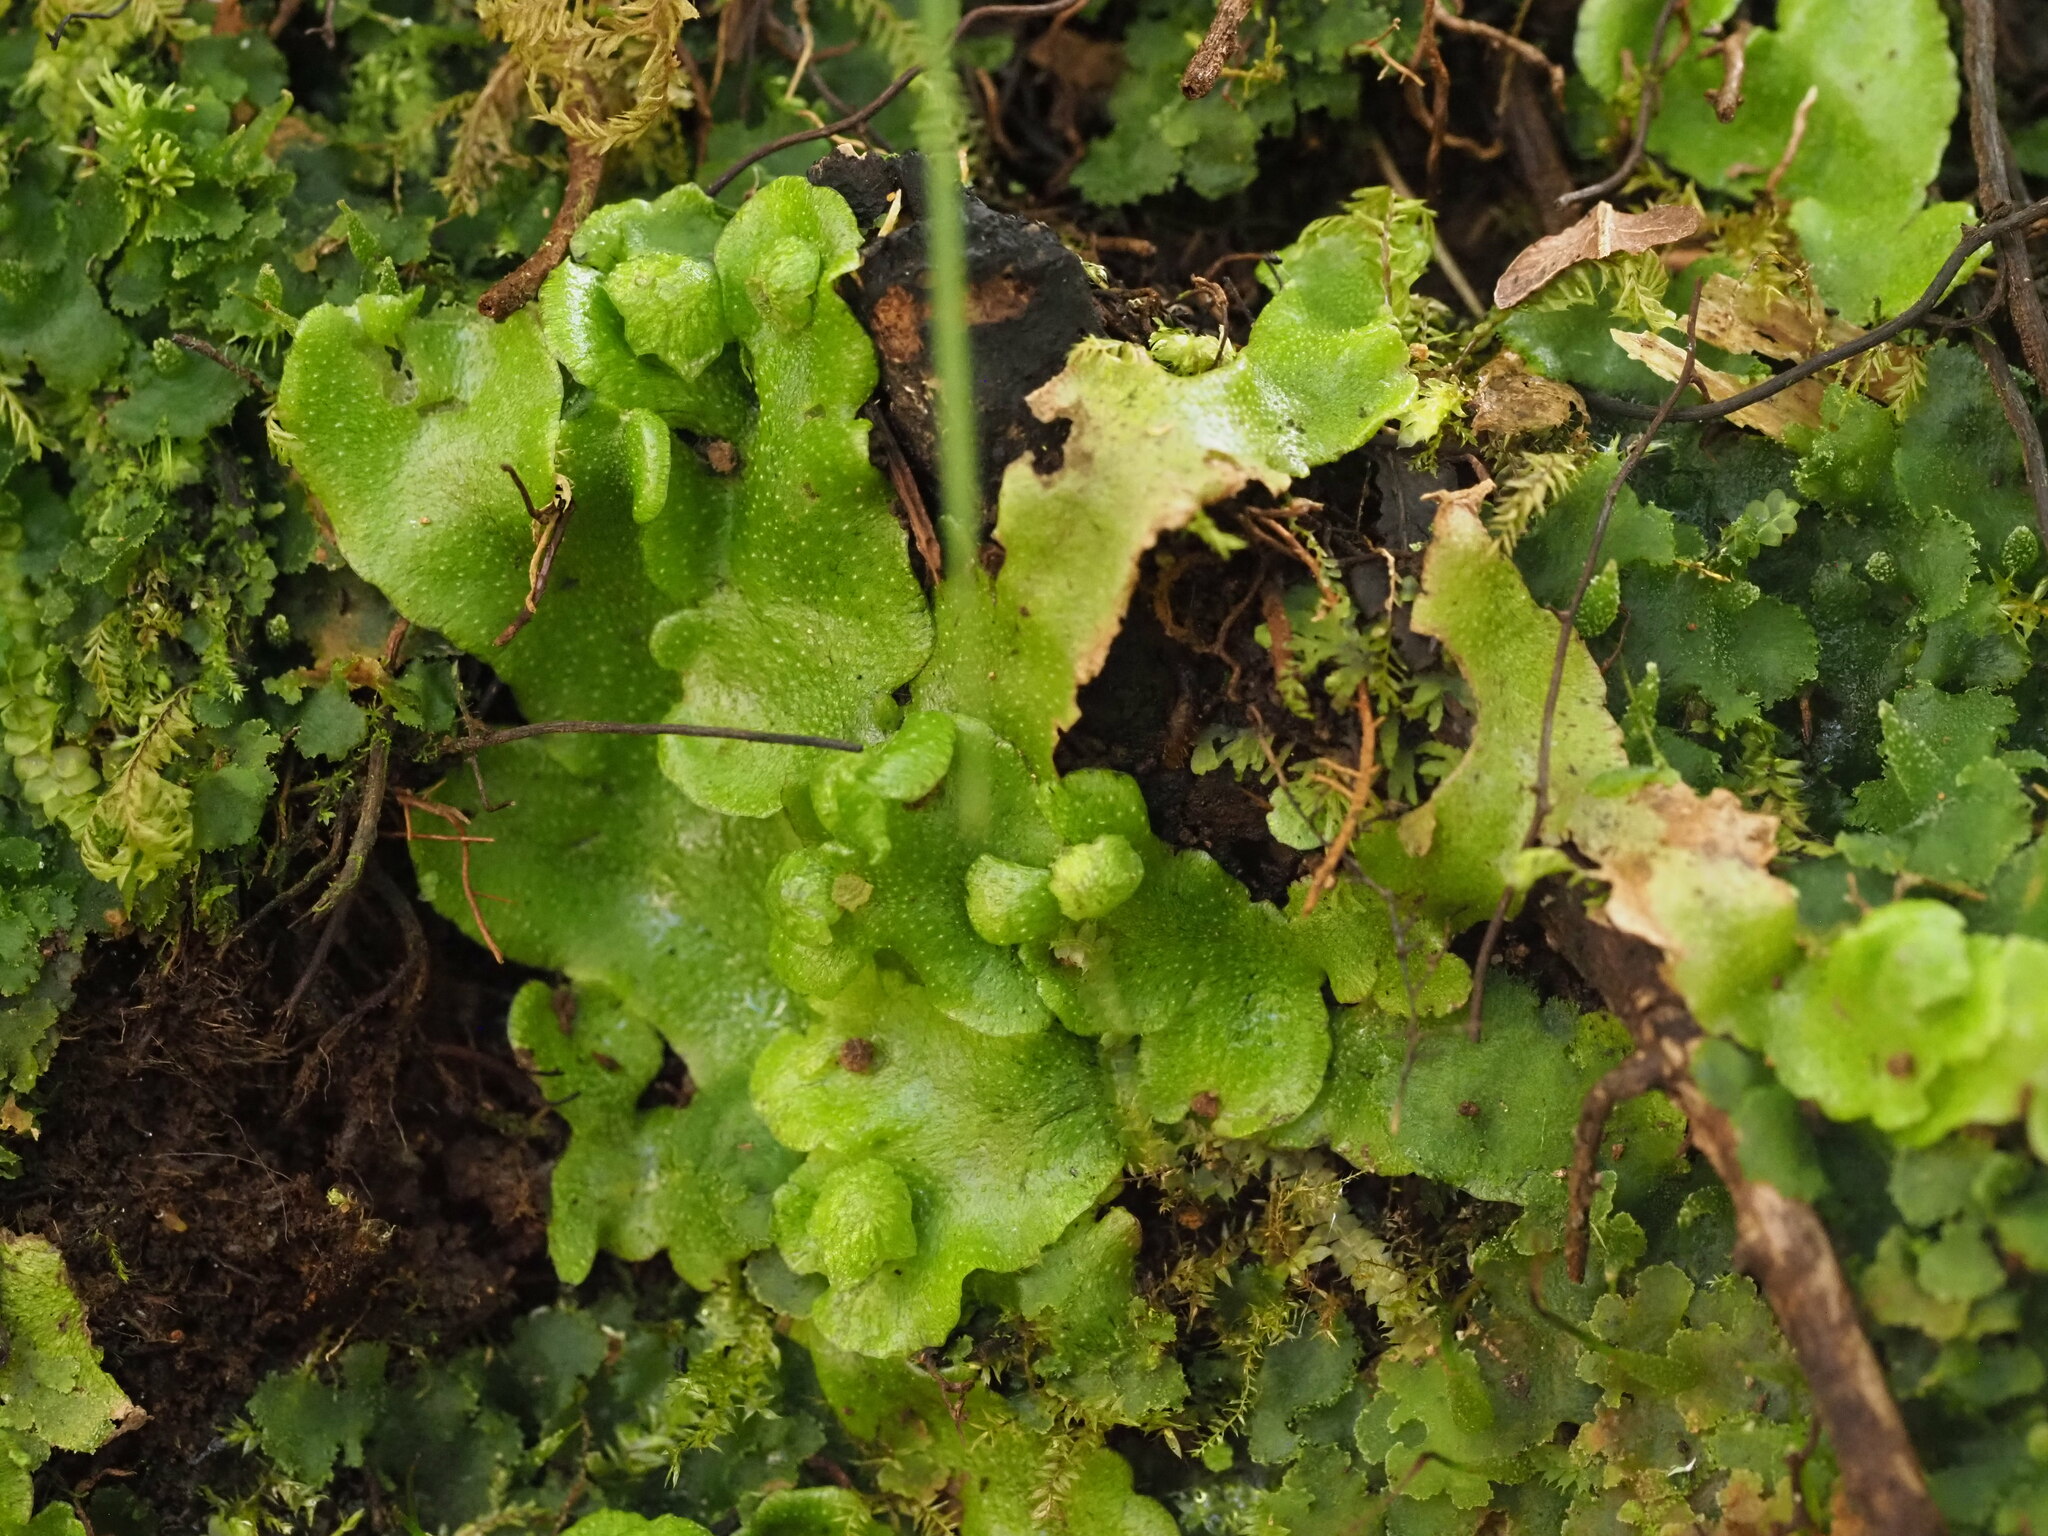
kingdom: Plantae
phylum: Marchantiophyta
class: Marchantiopsida
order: Marchantiales
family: Wiesnerellaceae
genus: Wiesnerella
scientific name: Wiesnerella denudata
